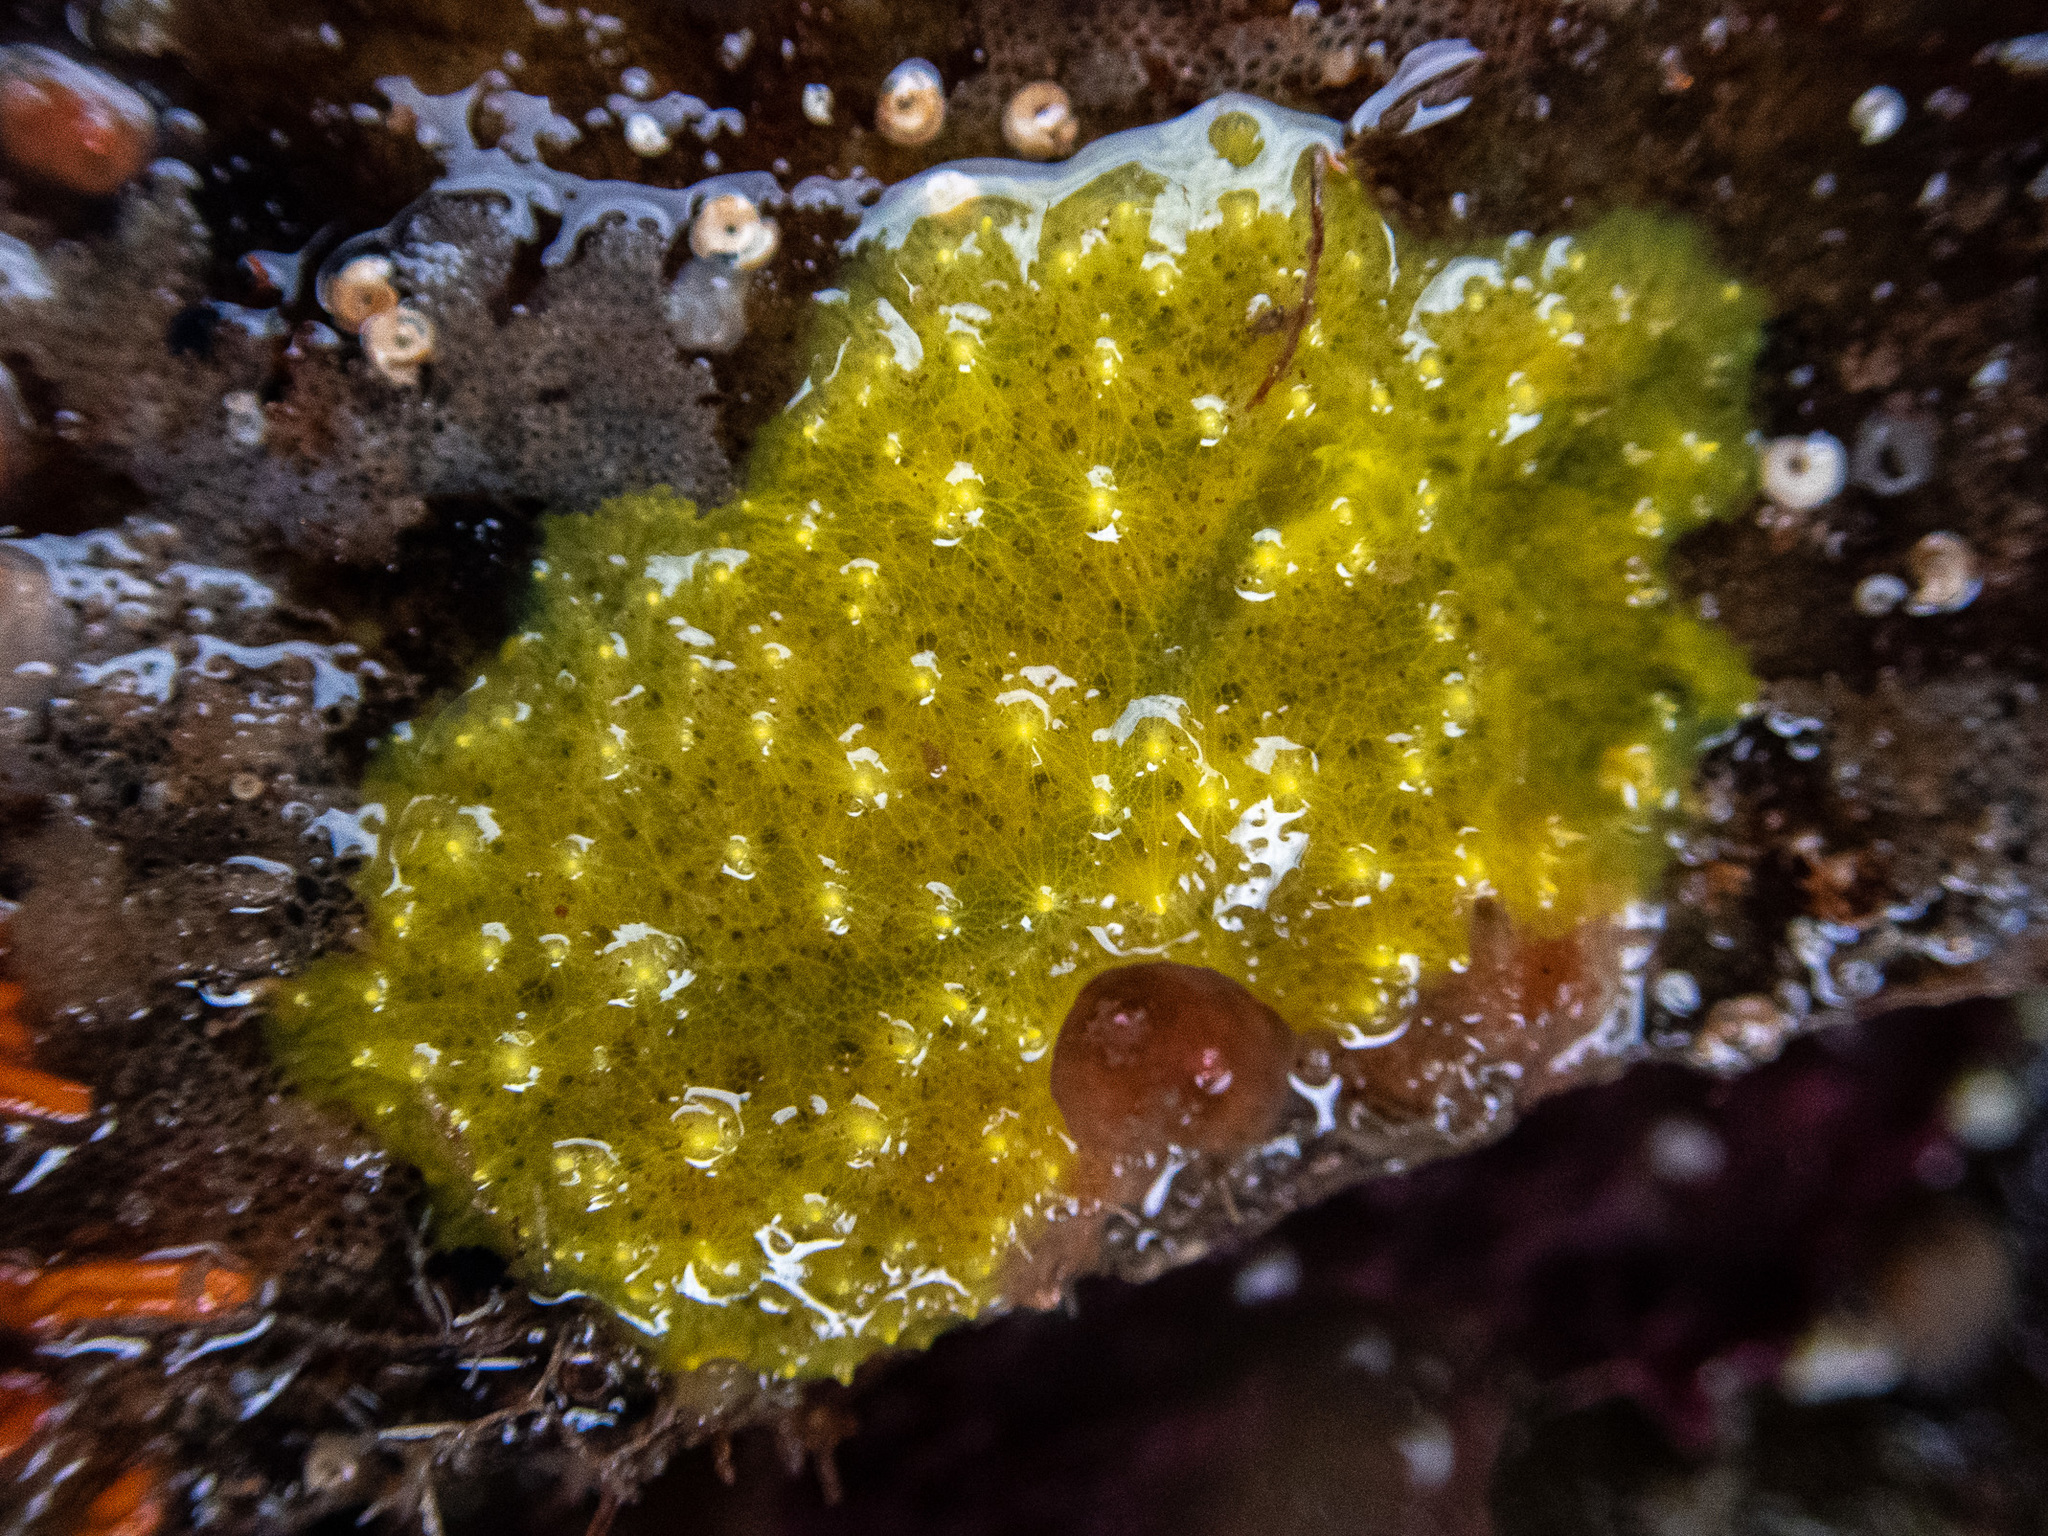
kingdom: Animalia
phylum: Porifera
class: Demospongiae
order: Dendroceratida
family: Darwinellidae
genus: Aplysilla
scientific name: Aplysilla sulfurea
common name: Sulfur sponge
